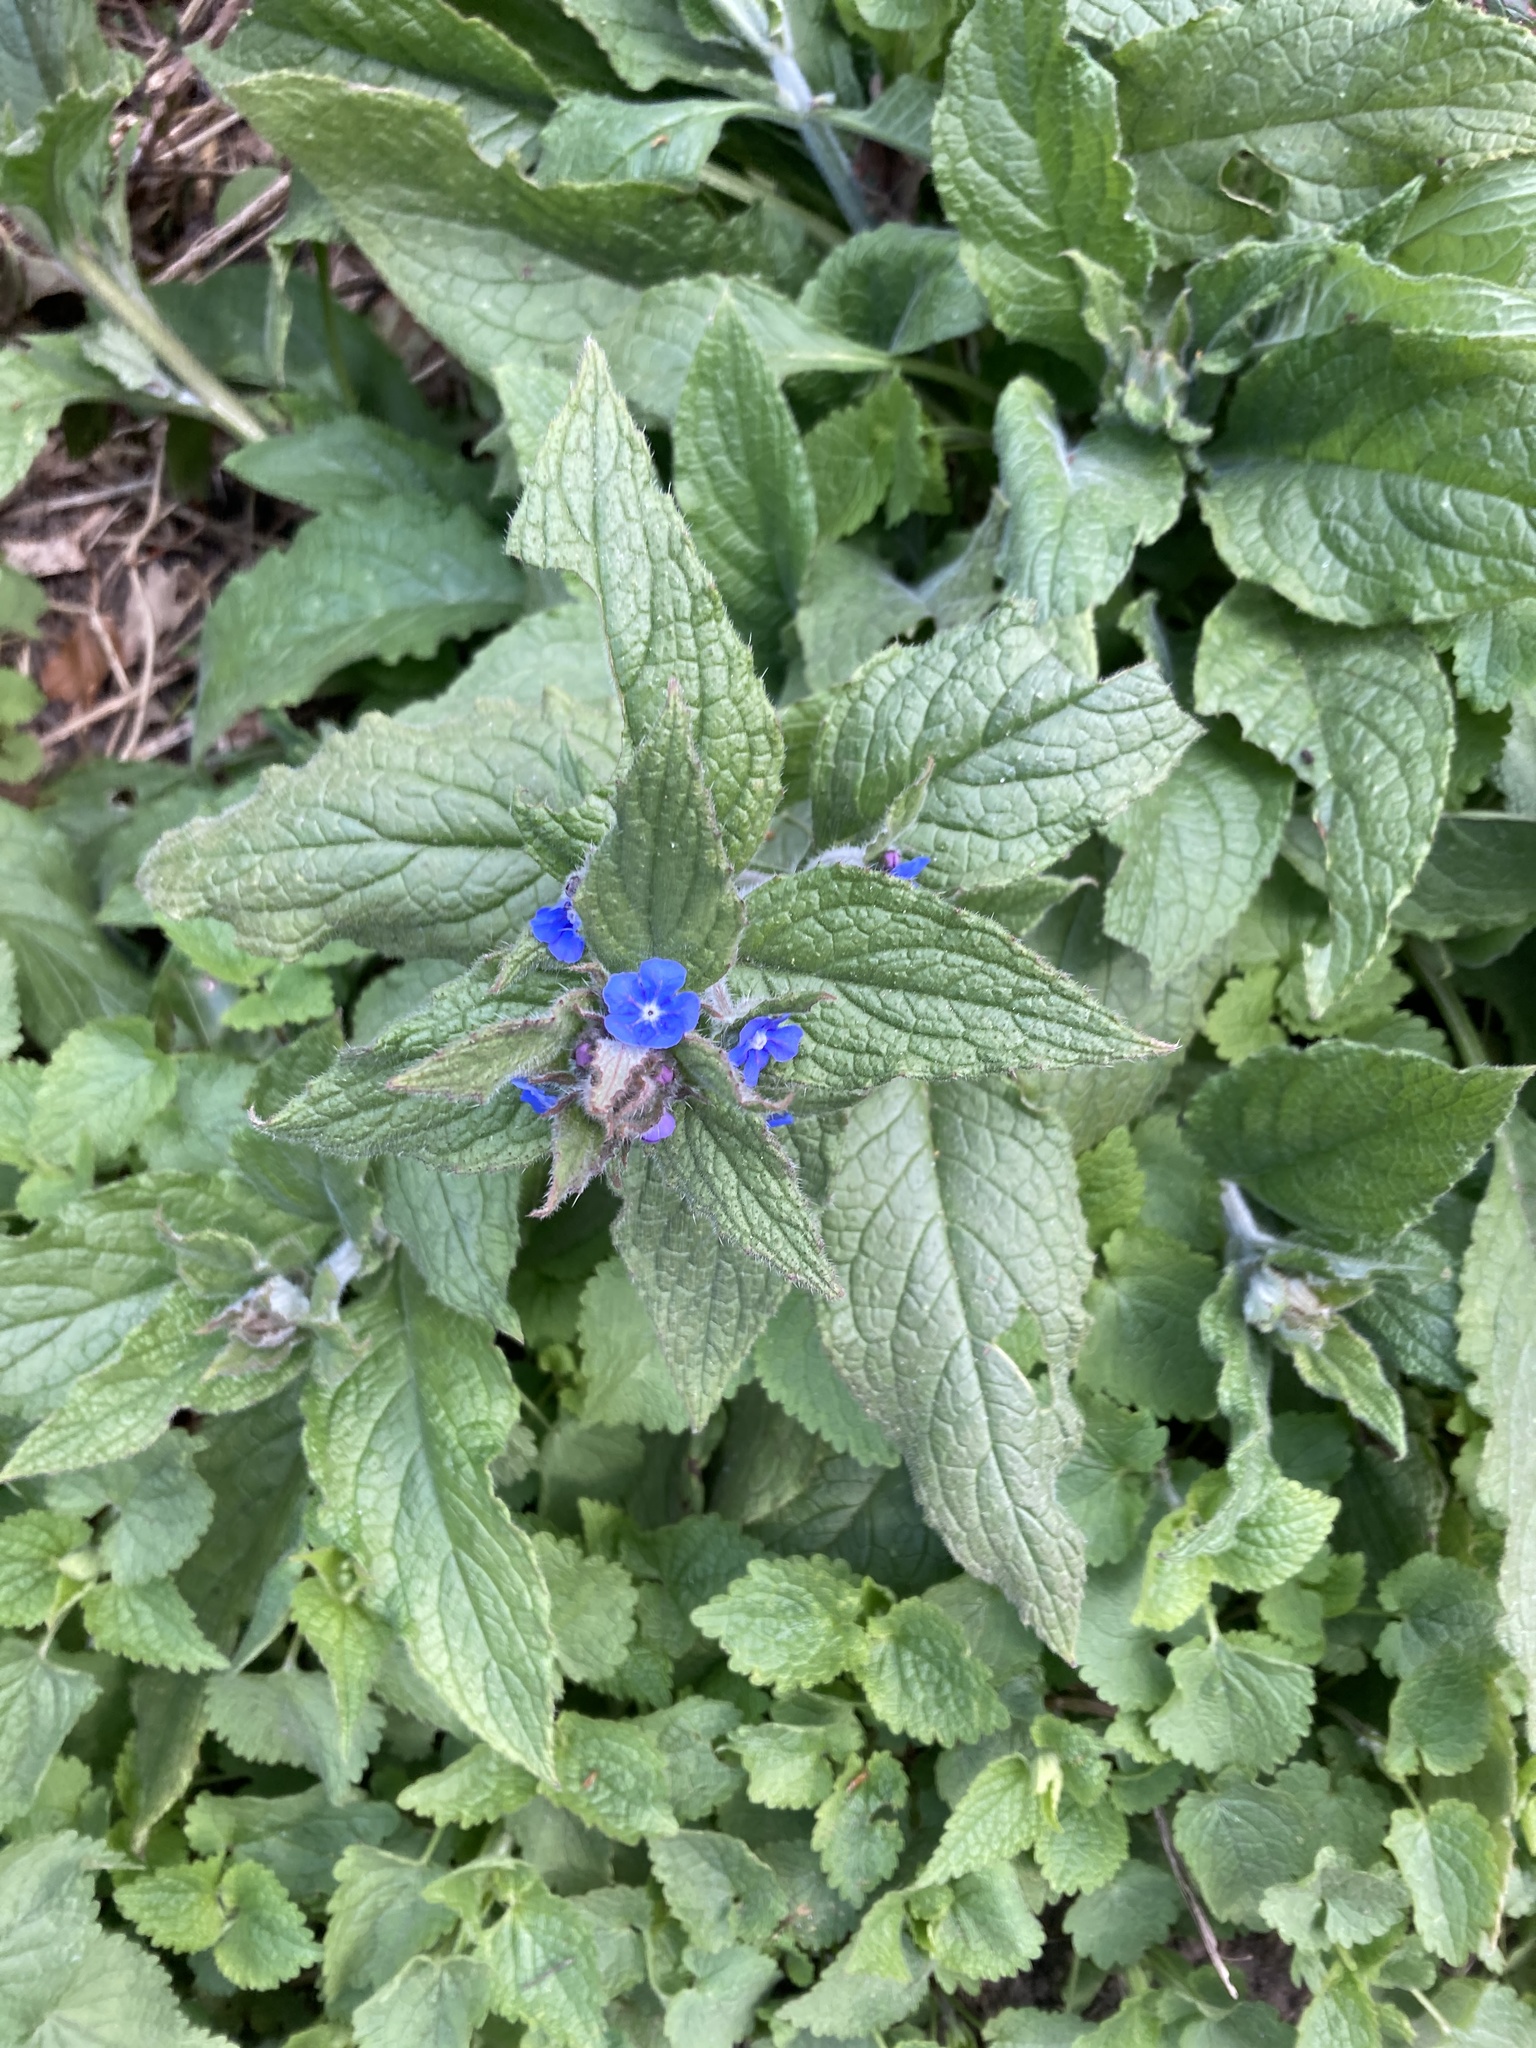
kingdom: Plantae
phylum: Tracheophyta
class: Magnoliopsida
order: Boraginales
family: Boraginaceae
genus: Pentaglottis
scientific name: Pentaglottis sempervirens
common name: Green alkanet
